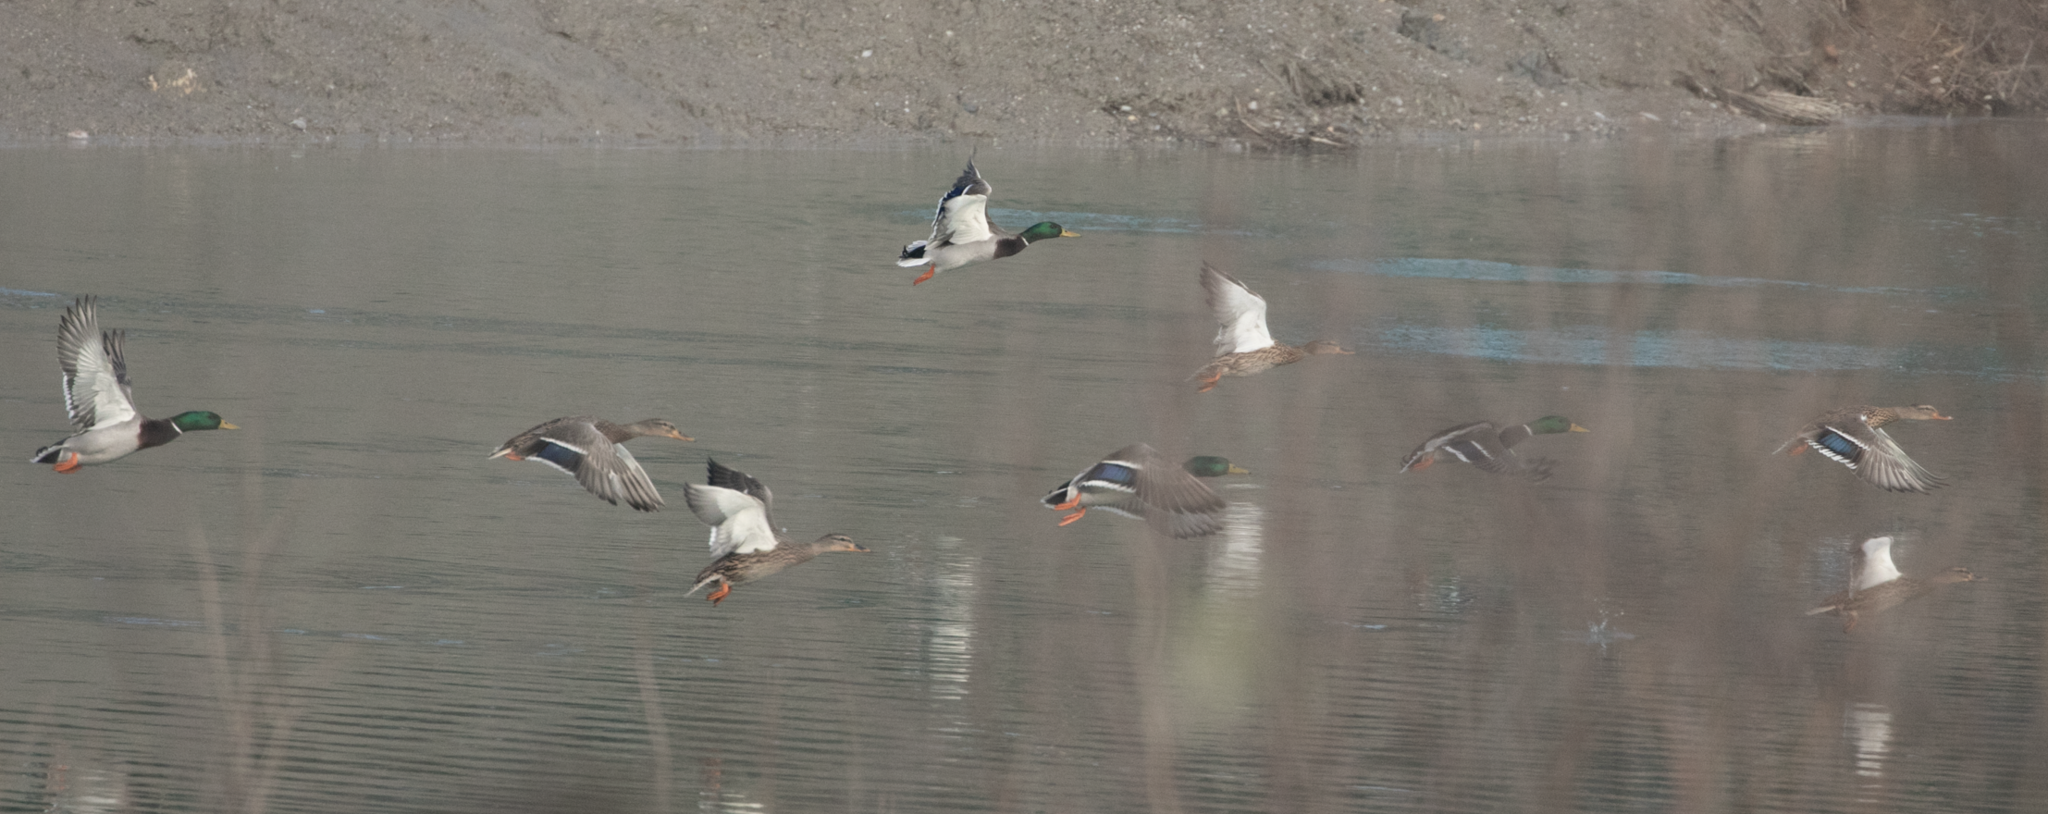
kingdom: Animalia
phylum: Chordata
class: Aves
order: Anseriformes
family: Anatidae
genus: Anas
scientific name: Anas platyrhynchos
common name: Mallard
